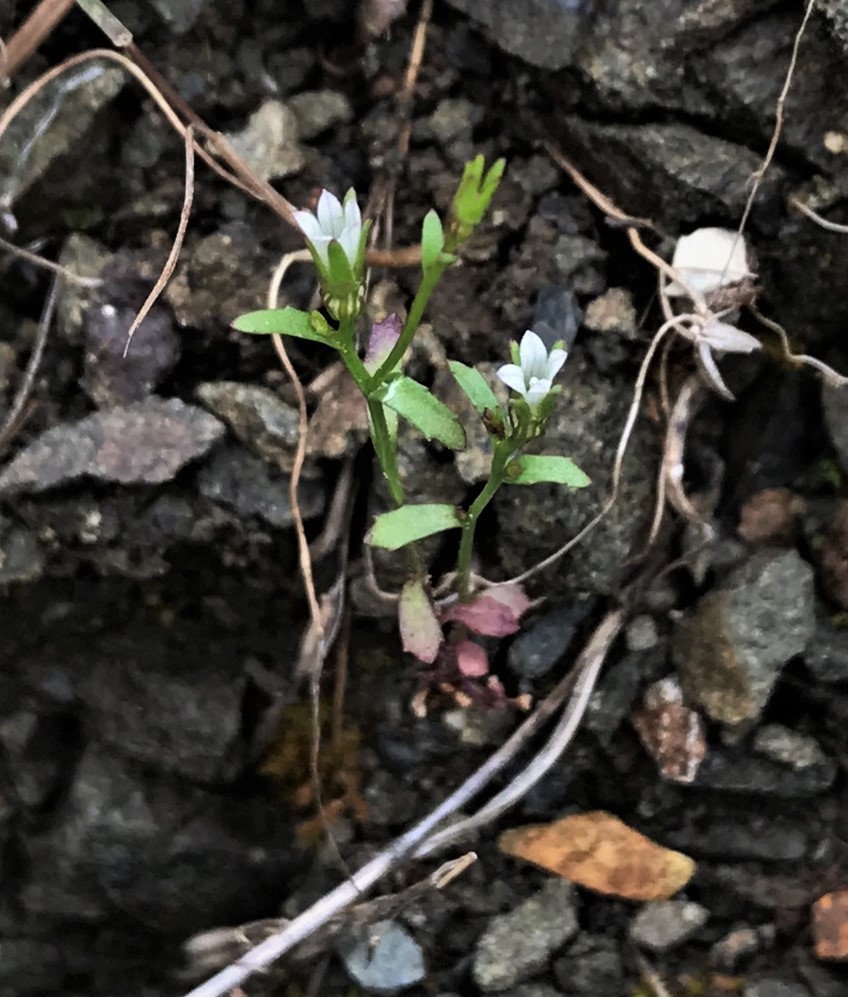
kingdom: Plantae
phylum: Tracheophyta
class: Magnoliopsida
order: Asterales
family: Campanulaceae
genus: Ravenella
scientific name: Ravenella griffinii
